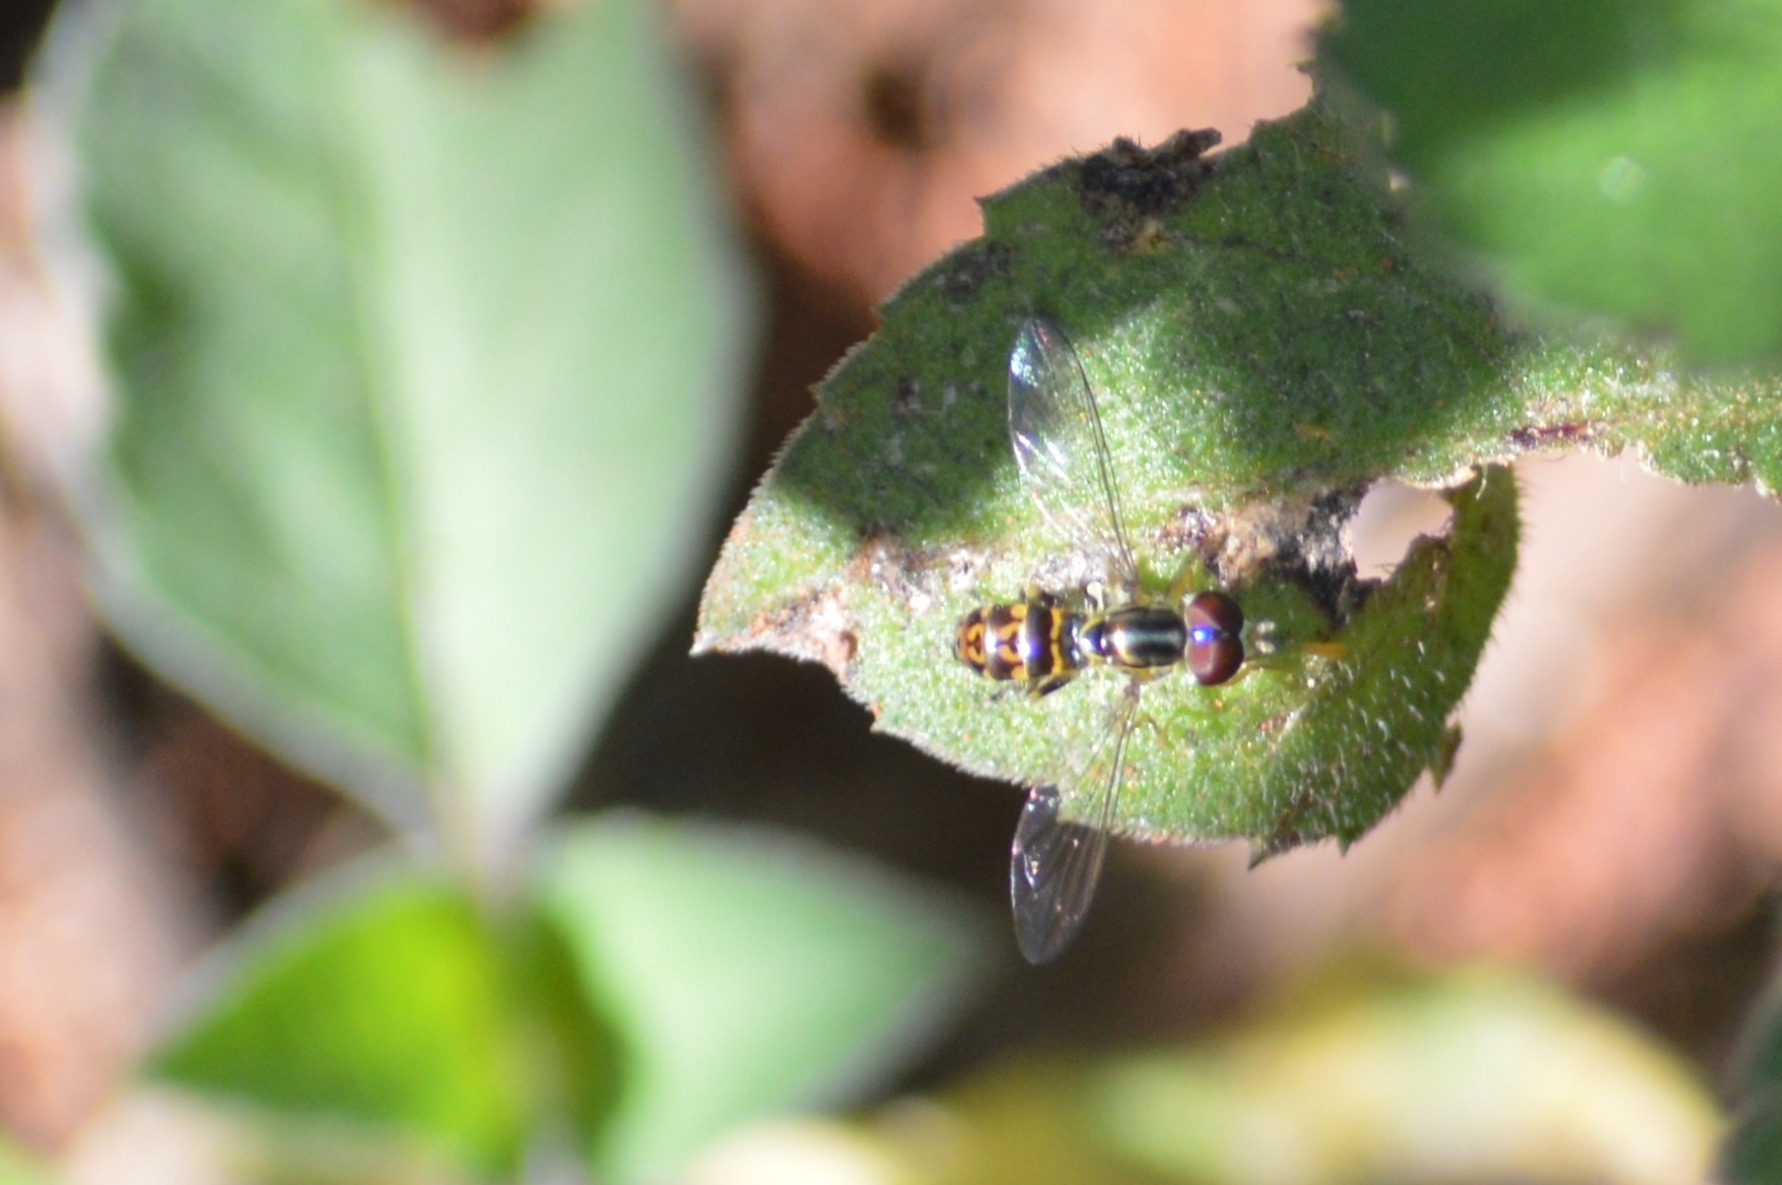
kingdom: Animalia
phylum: Arthropoda
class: Insecta
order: Diptera
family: Syrphidae
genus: Toxomerus
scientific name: Toxomerus virgulatus
